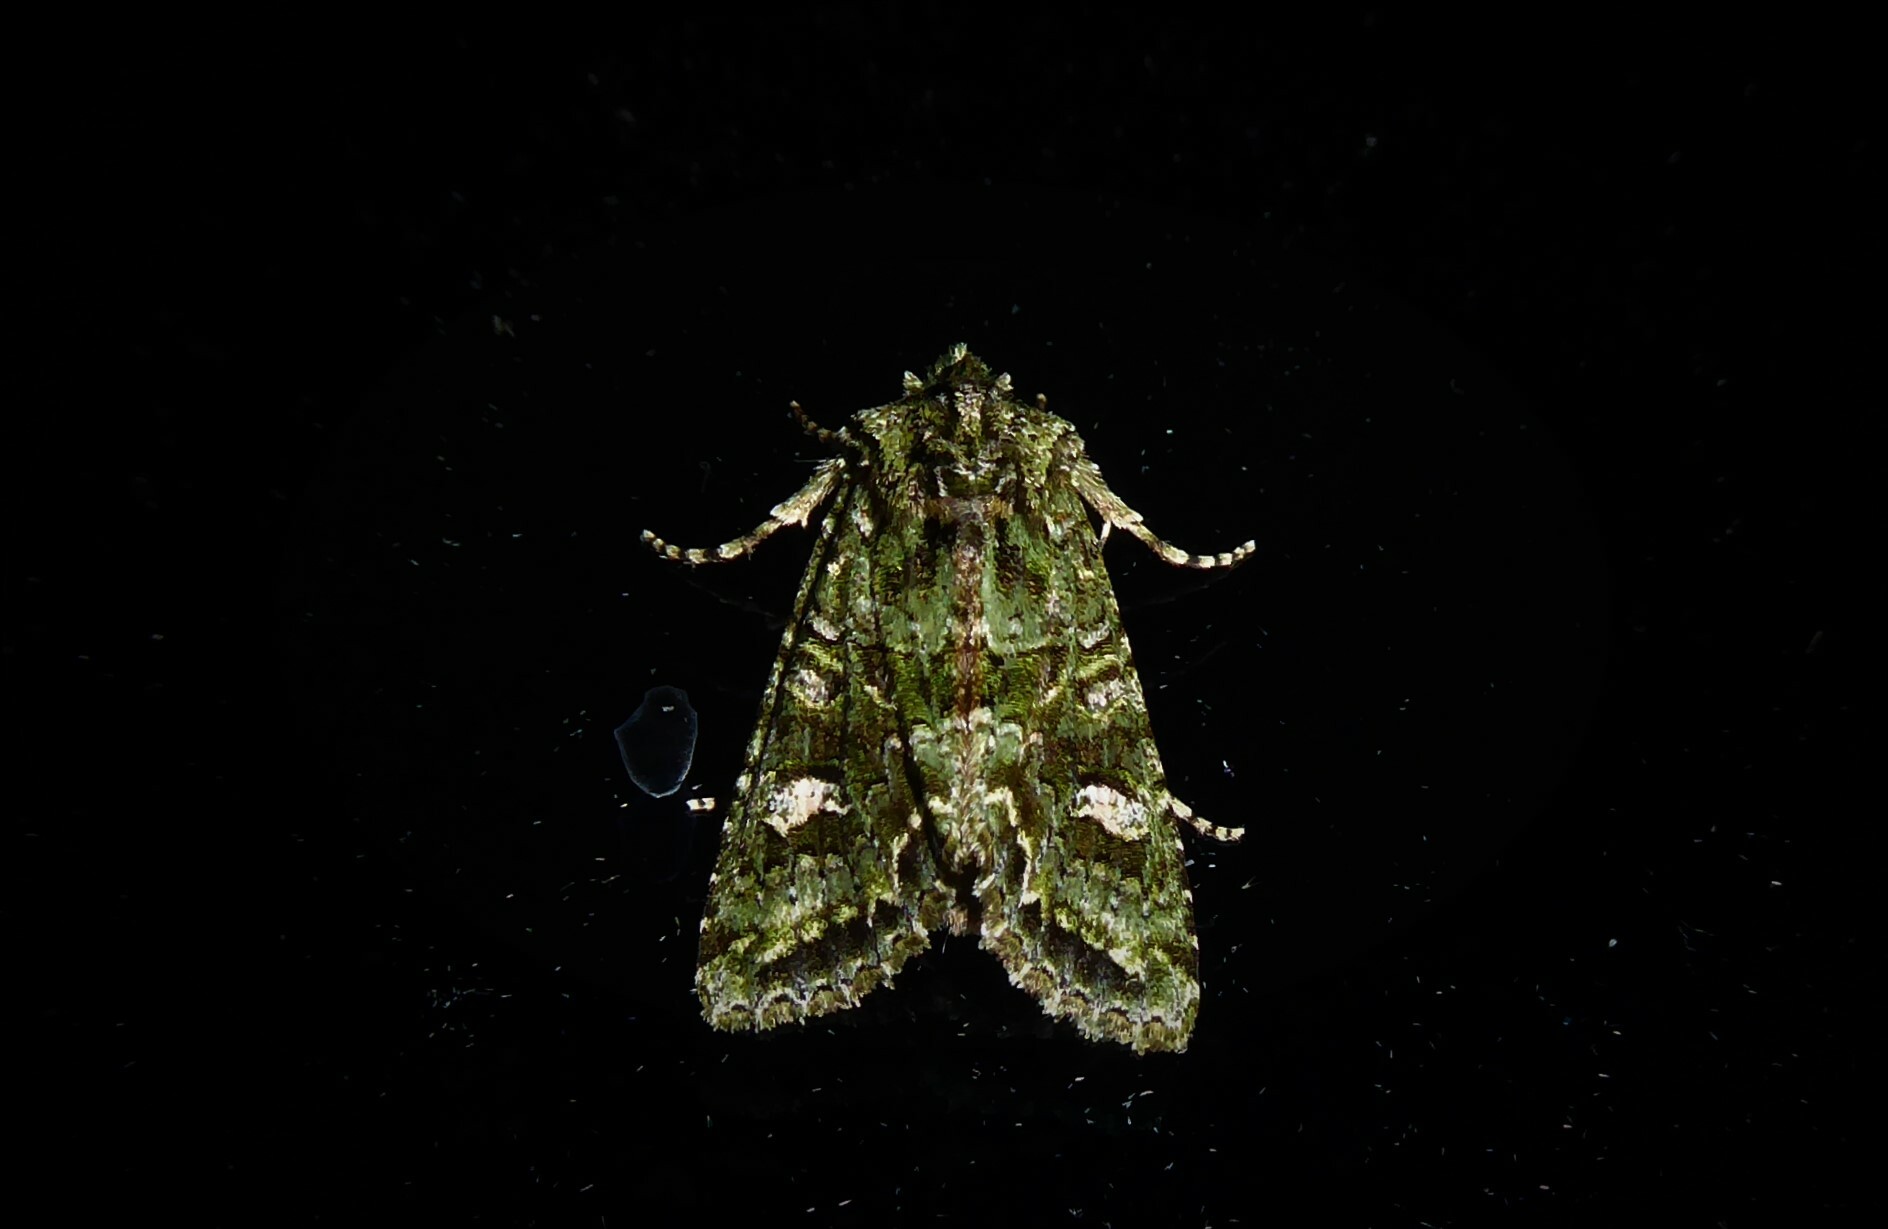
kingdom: Animalia
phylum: Arthropoda
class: Insecta
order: Lepidoptera
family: Noctuidae
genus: Ichneutica
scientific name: Ichneutica
